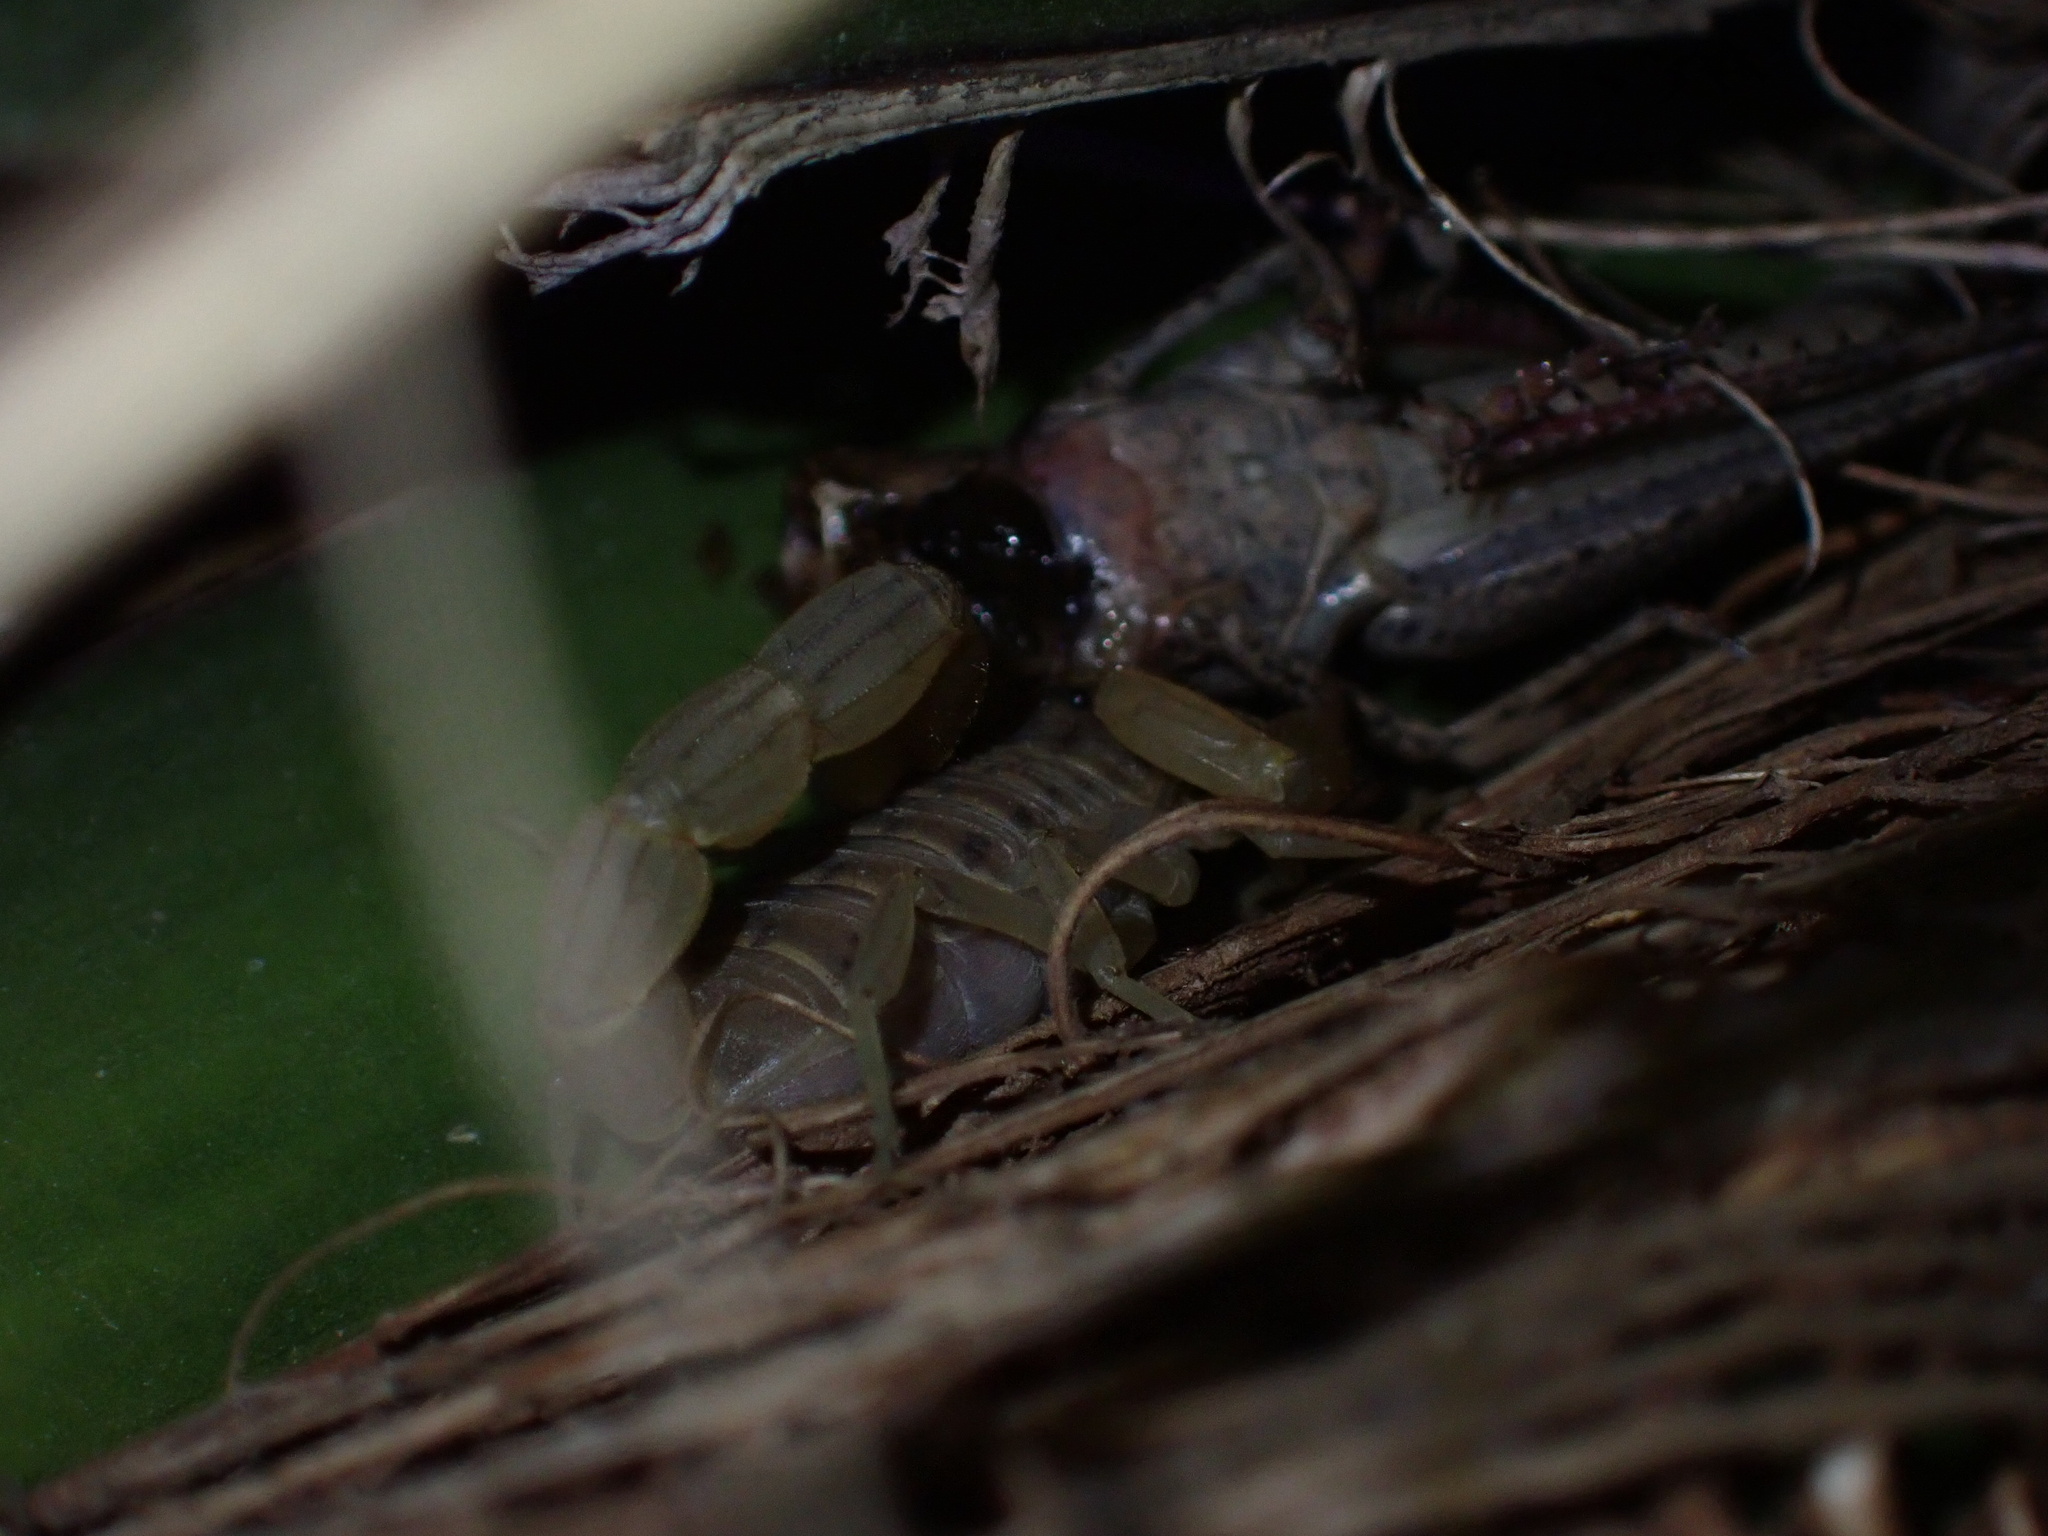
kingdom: Animalia
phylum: Arthropoda
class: Arachnida
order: Scorpiones
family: Buthidae
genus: Mesobuthus
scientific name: Mesobuthus mirshamsii
